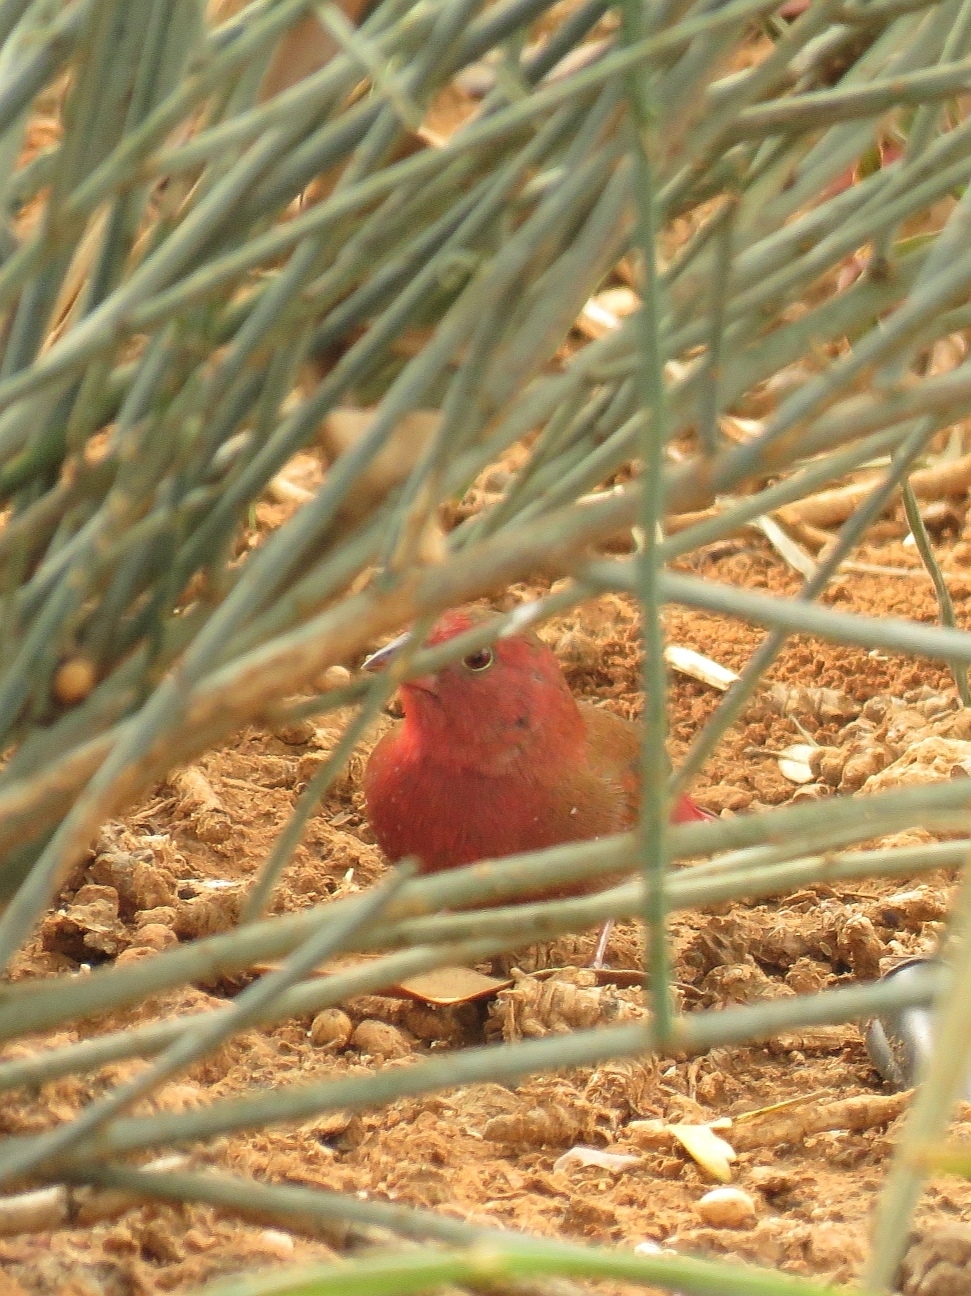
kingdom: Animalia
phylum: Chordata
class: Aves
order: Passeriformes
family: Estrildidae
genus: Lagonosticta
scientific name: Lagonosticta senegala
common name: Red-billed firefinch
